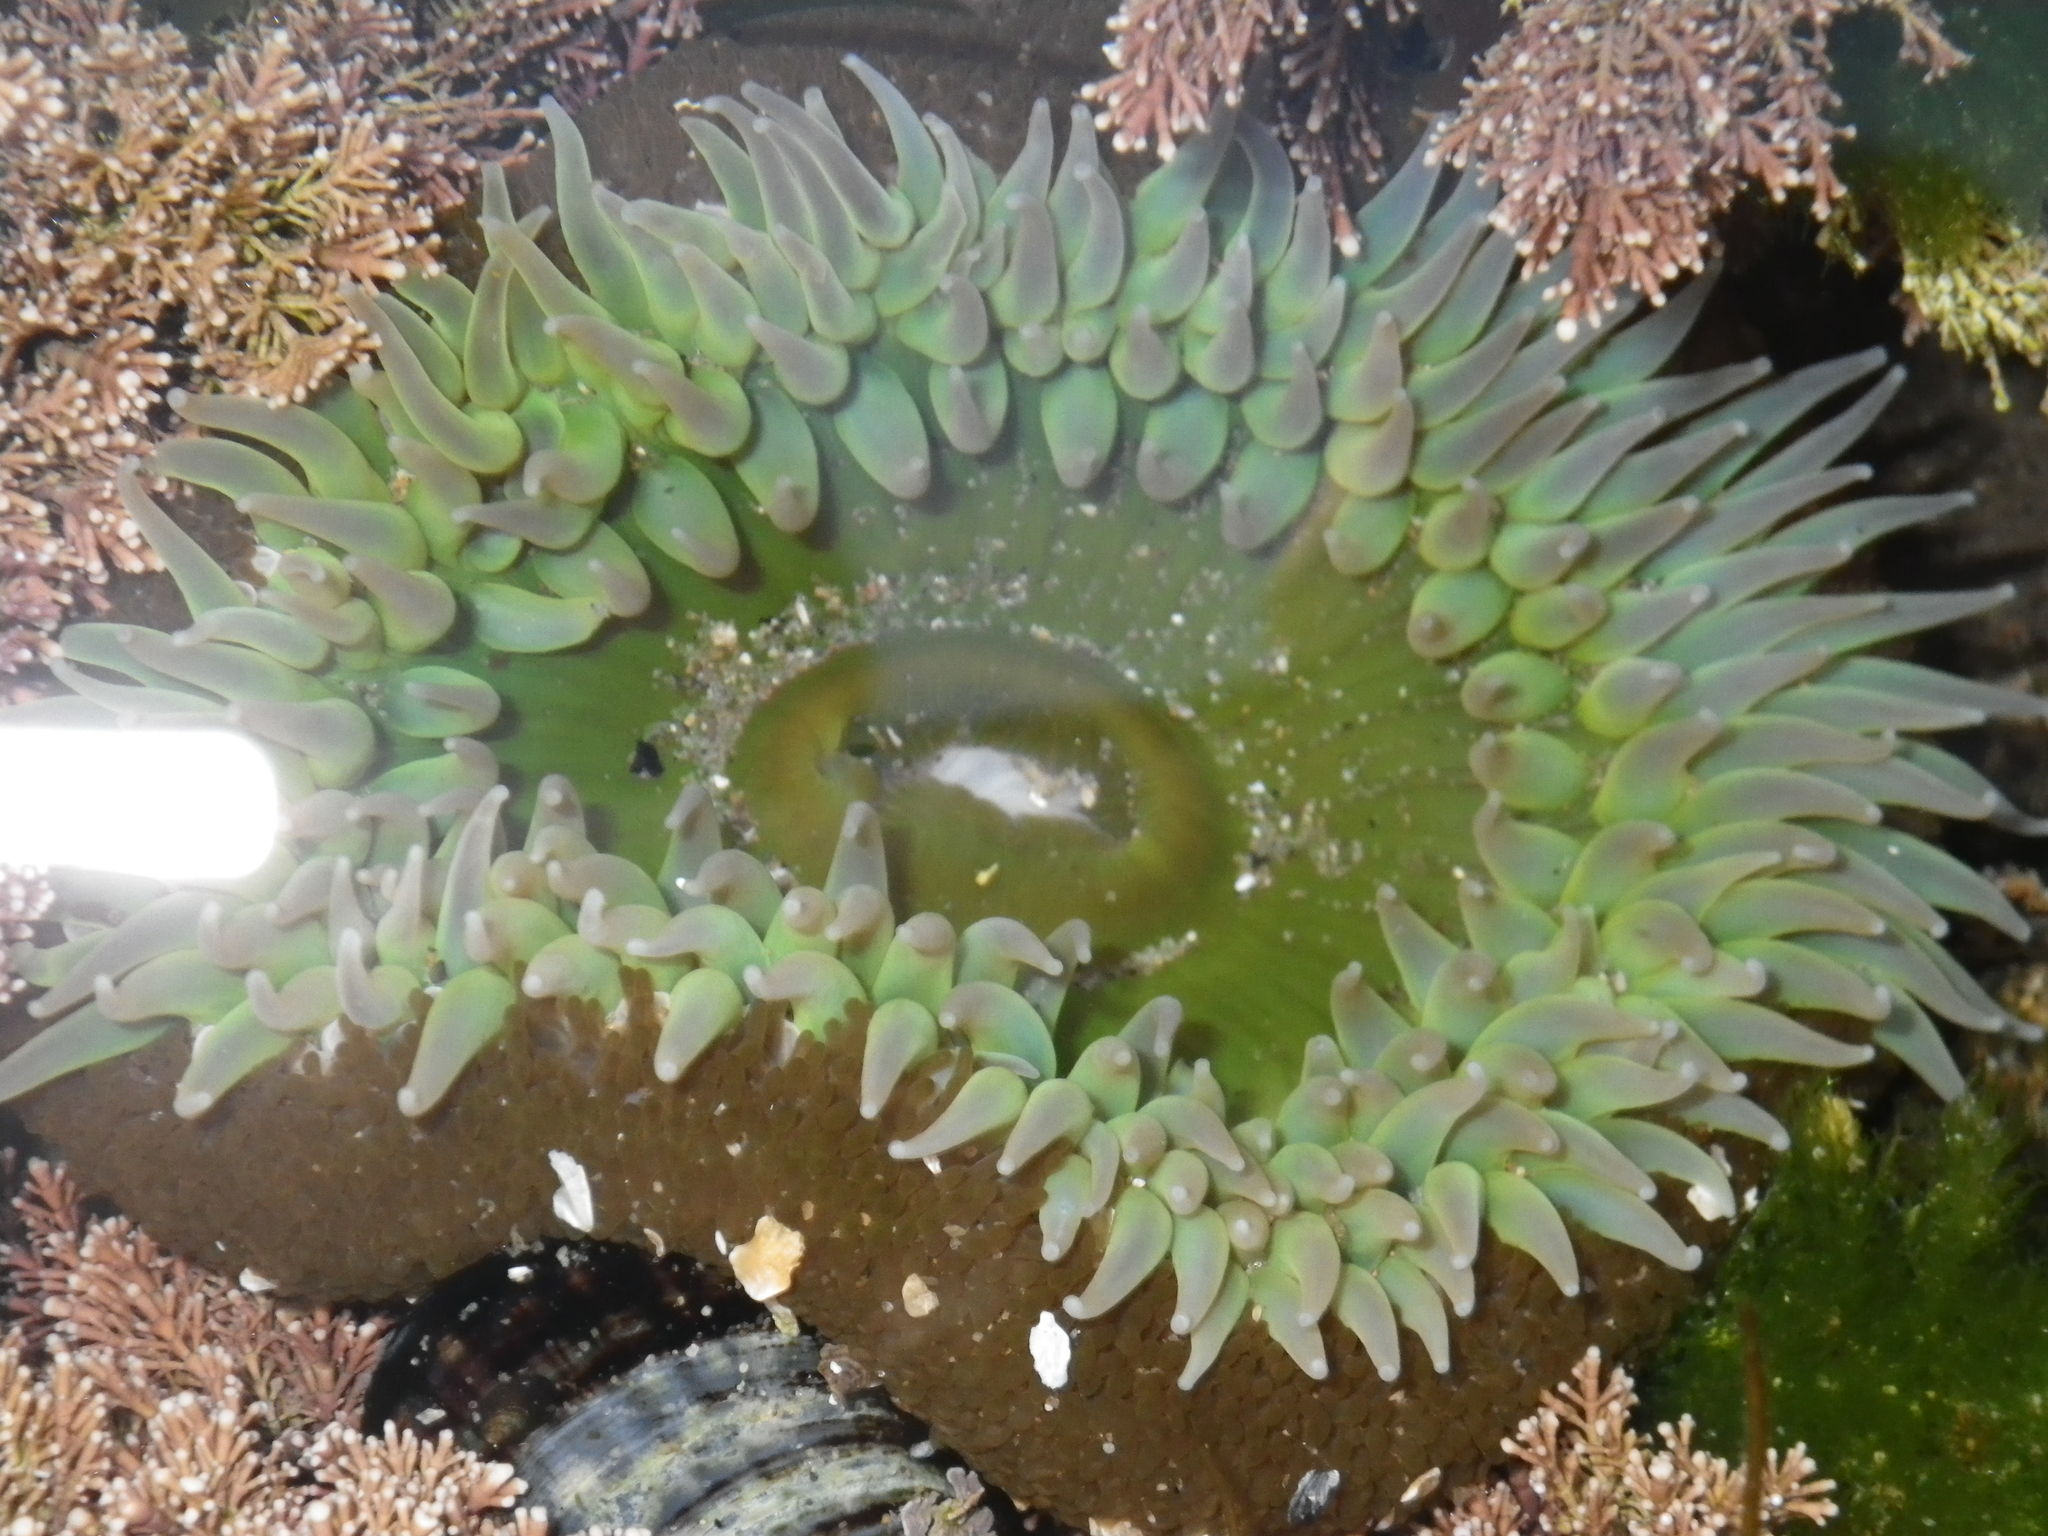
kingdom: Animalia
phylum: Cnidaria
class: Anthozoa
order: Actiniaria
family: Actiniidae
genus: Anthopleura
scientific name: Anthopleura xanthogrammica
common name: Giant green anemone
